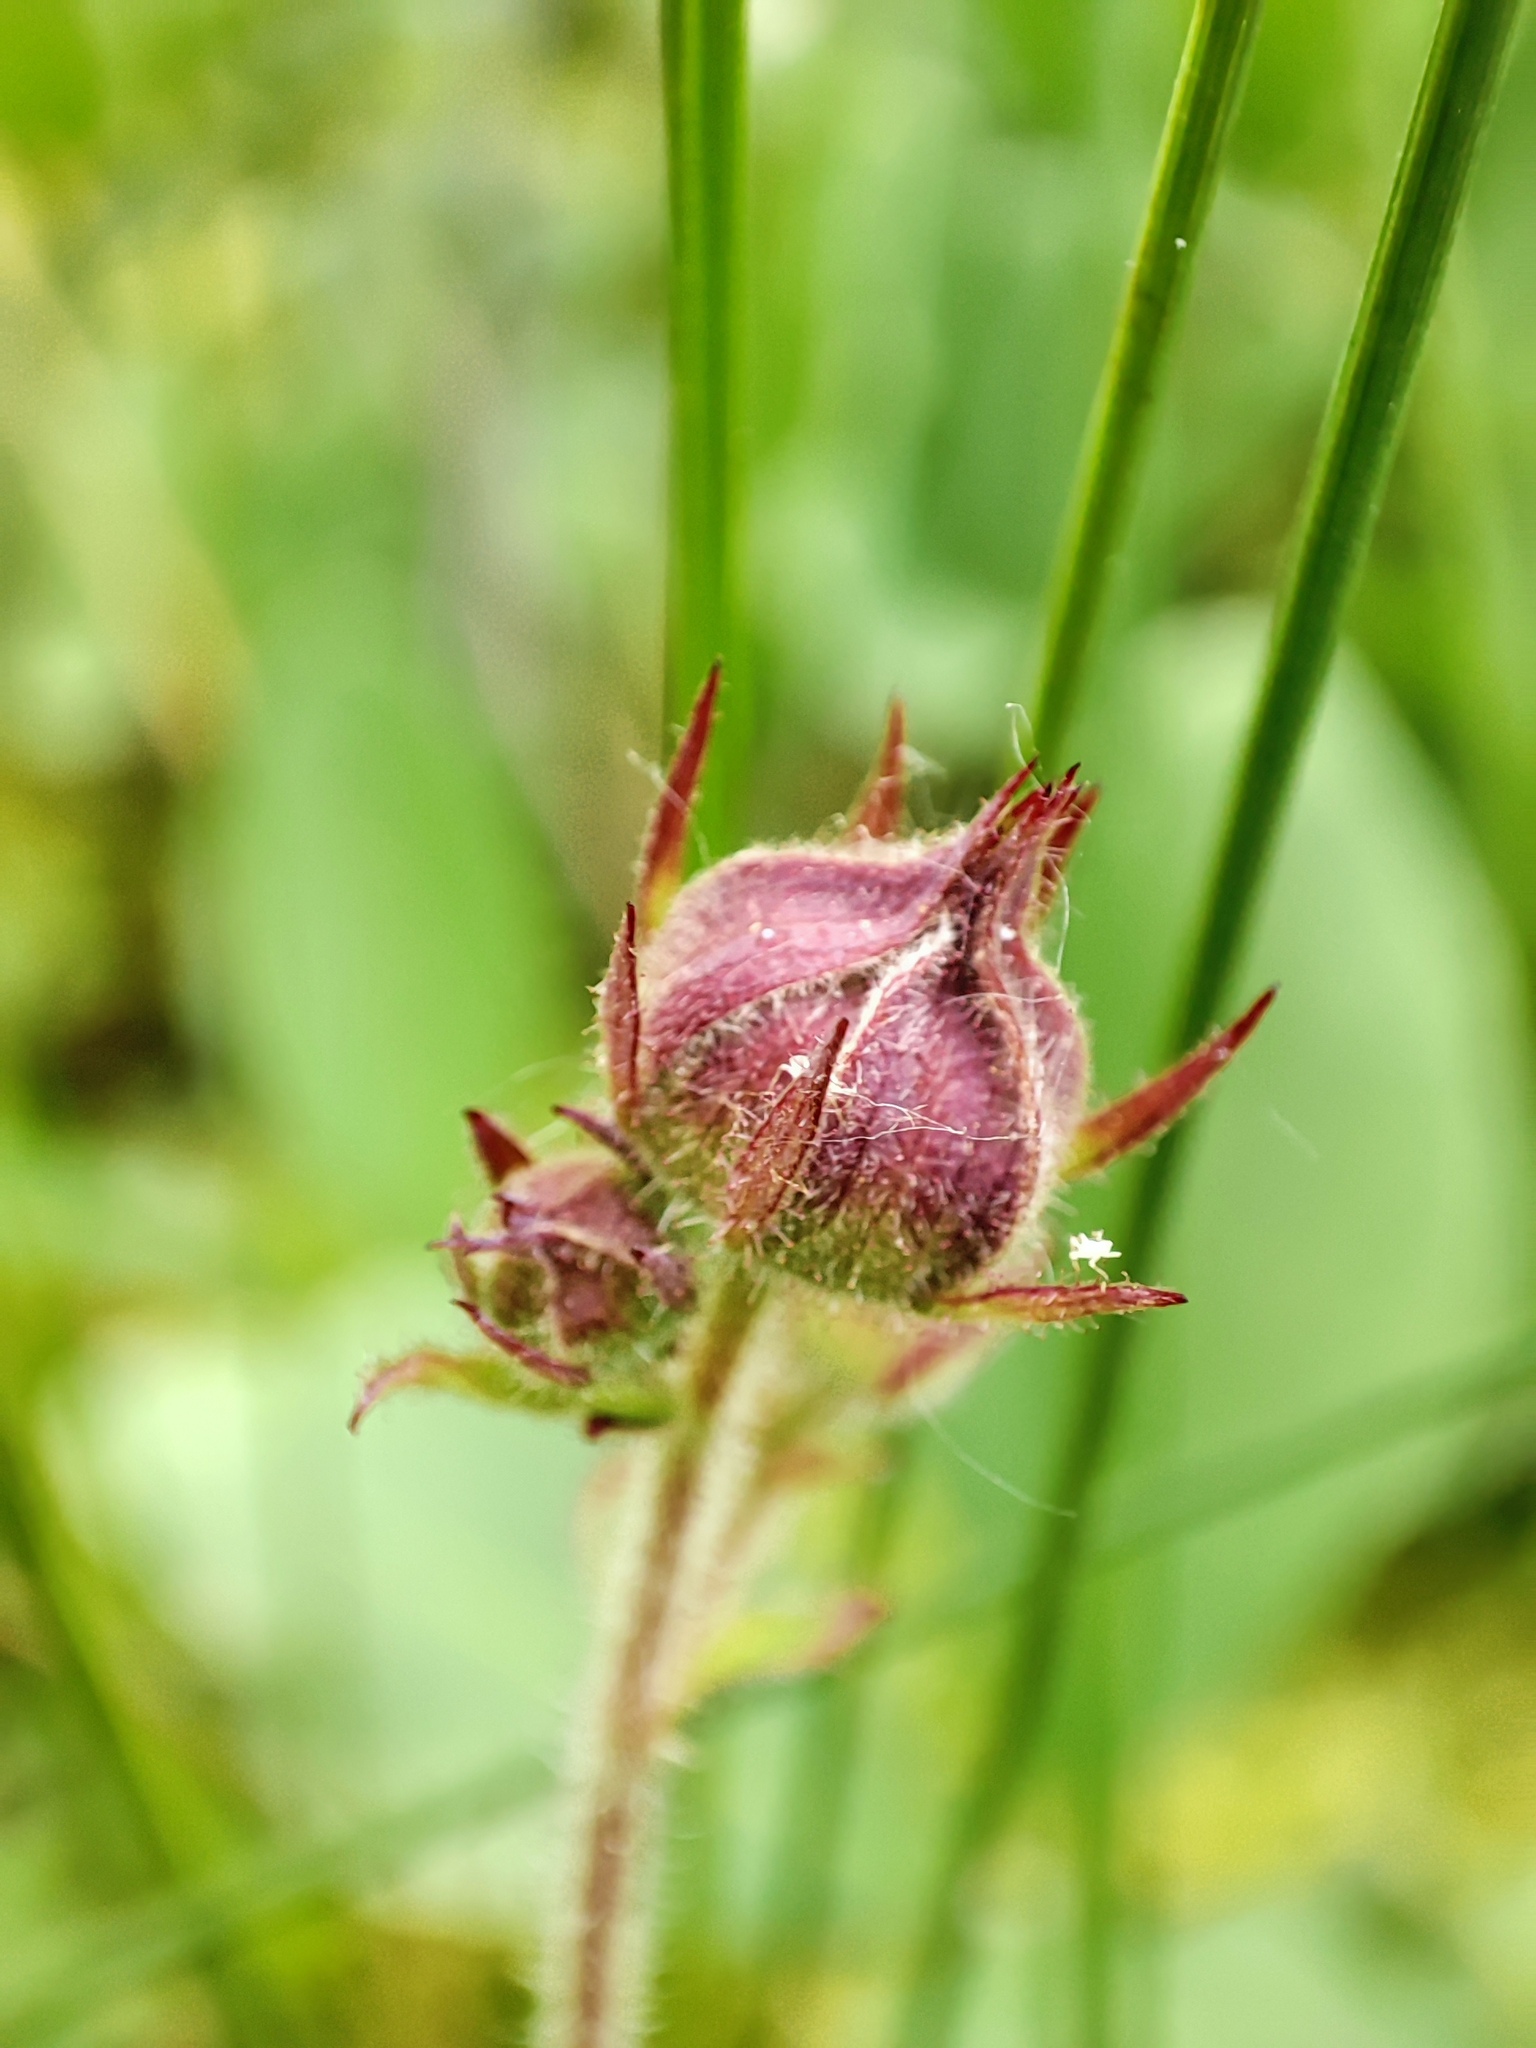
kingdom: Plantae
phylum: Tracheophyta
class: Magnoliopsida
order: Rosales
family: Rosaceae
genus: Comarum
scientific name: Comarum palustre
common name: Marsh cinquefoil
